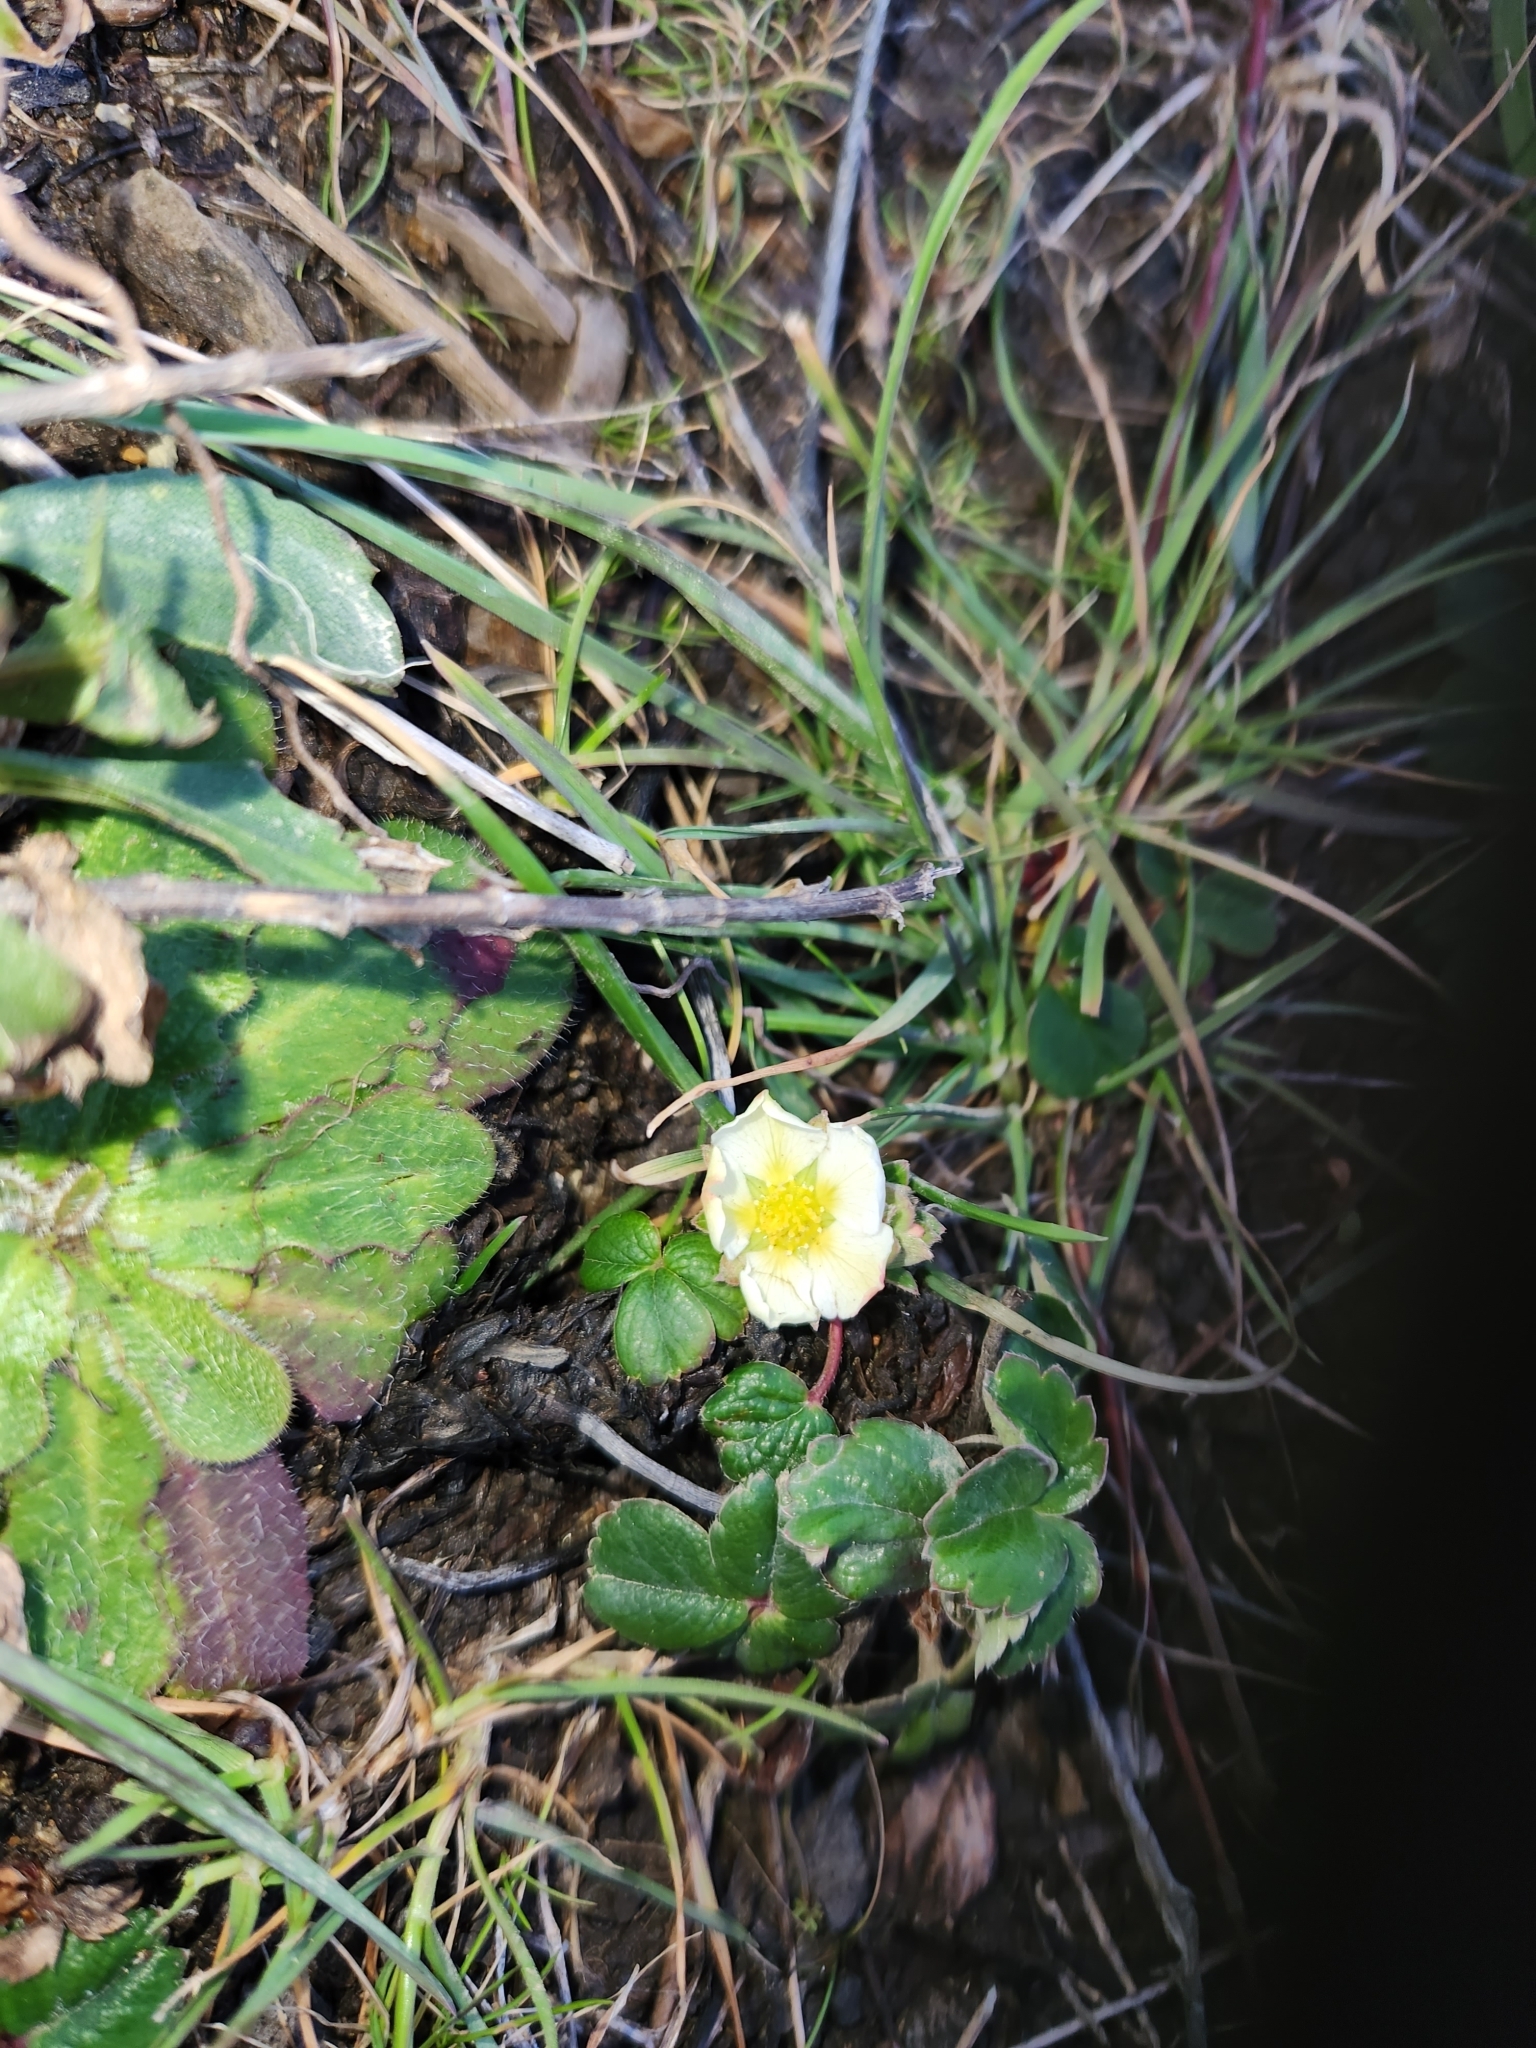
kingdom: Plantae
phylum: Tracheophyta
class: Magnoliopsida
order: Rosales
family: Rosaceae
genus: Fragaria
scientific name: Fragaria chiloensis
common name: Beach strawberry
